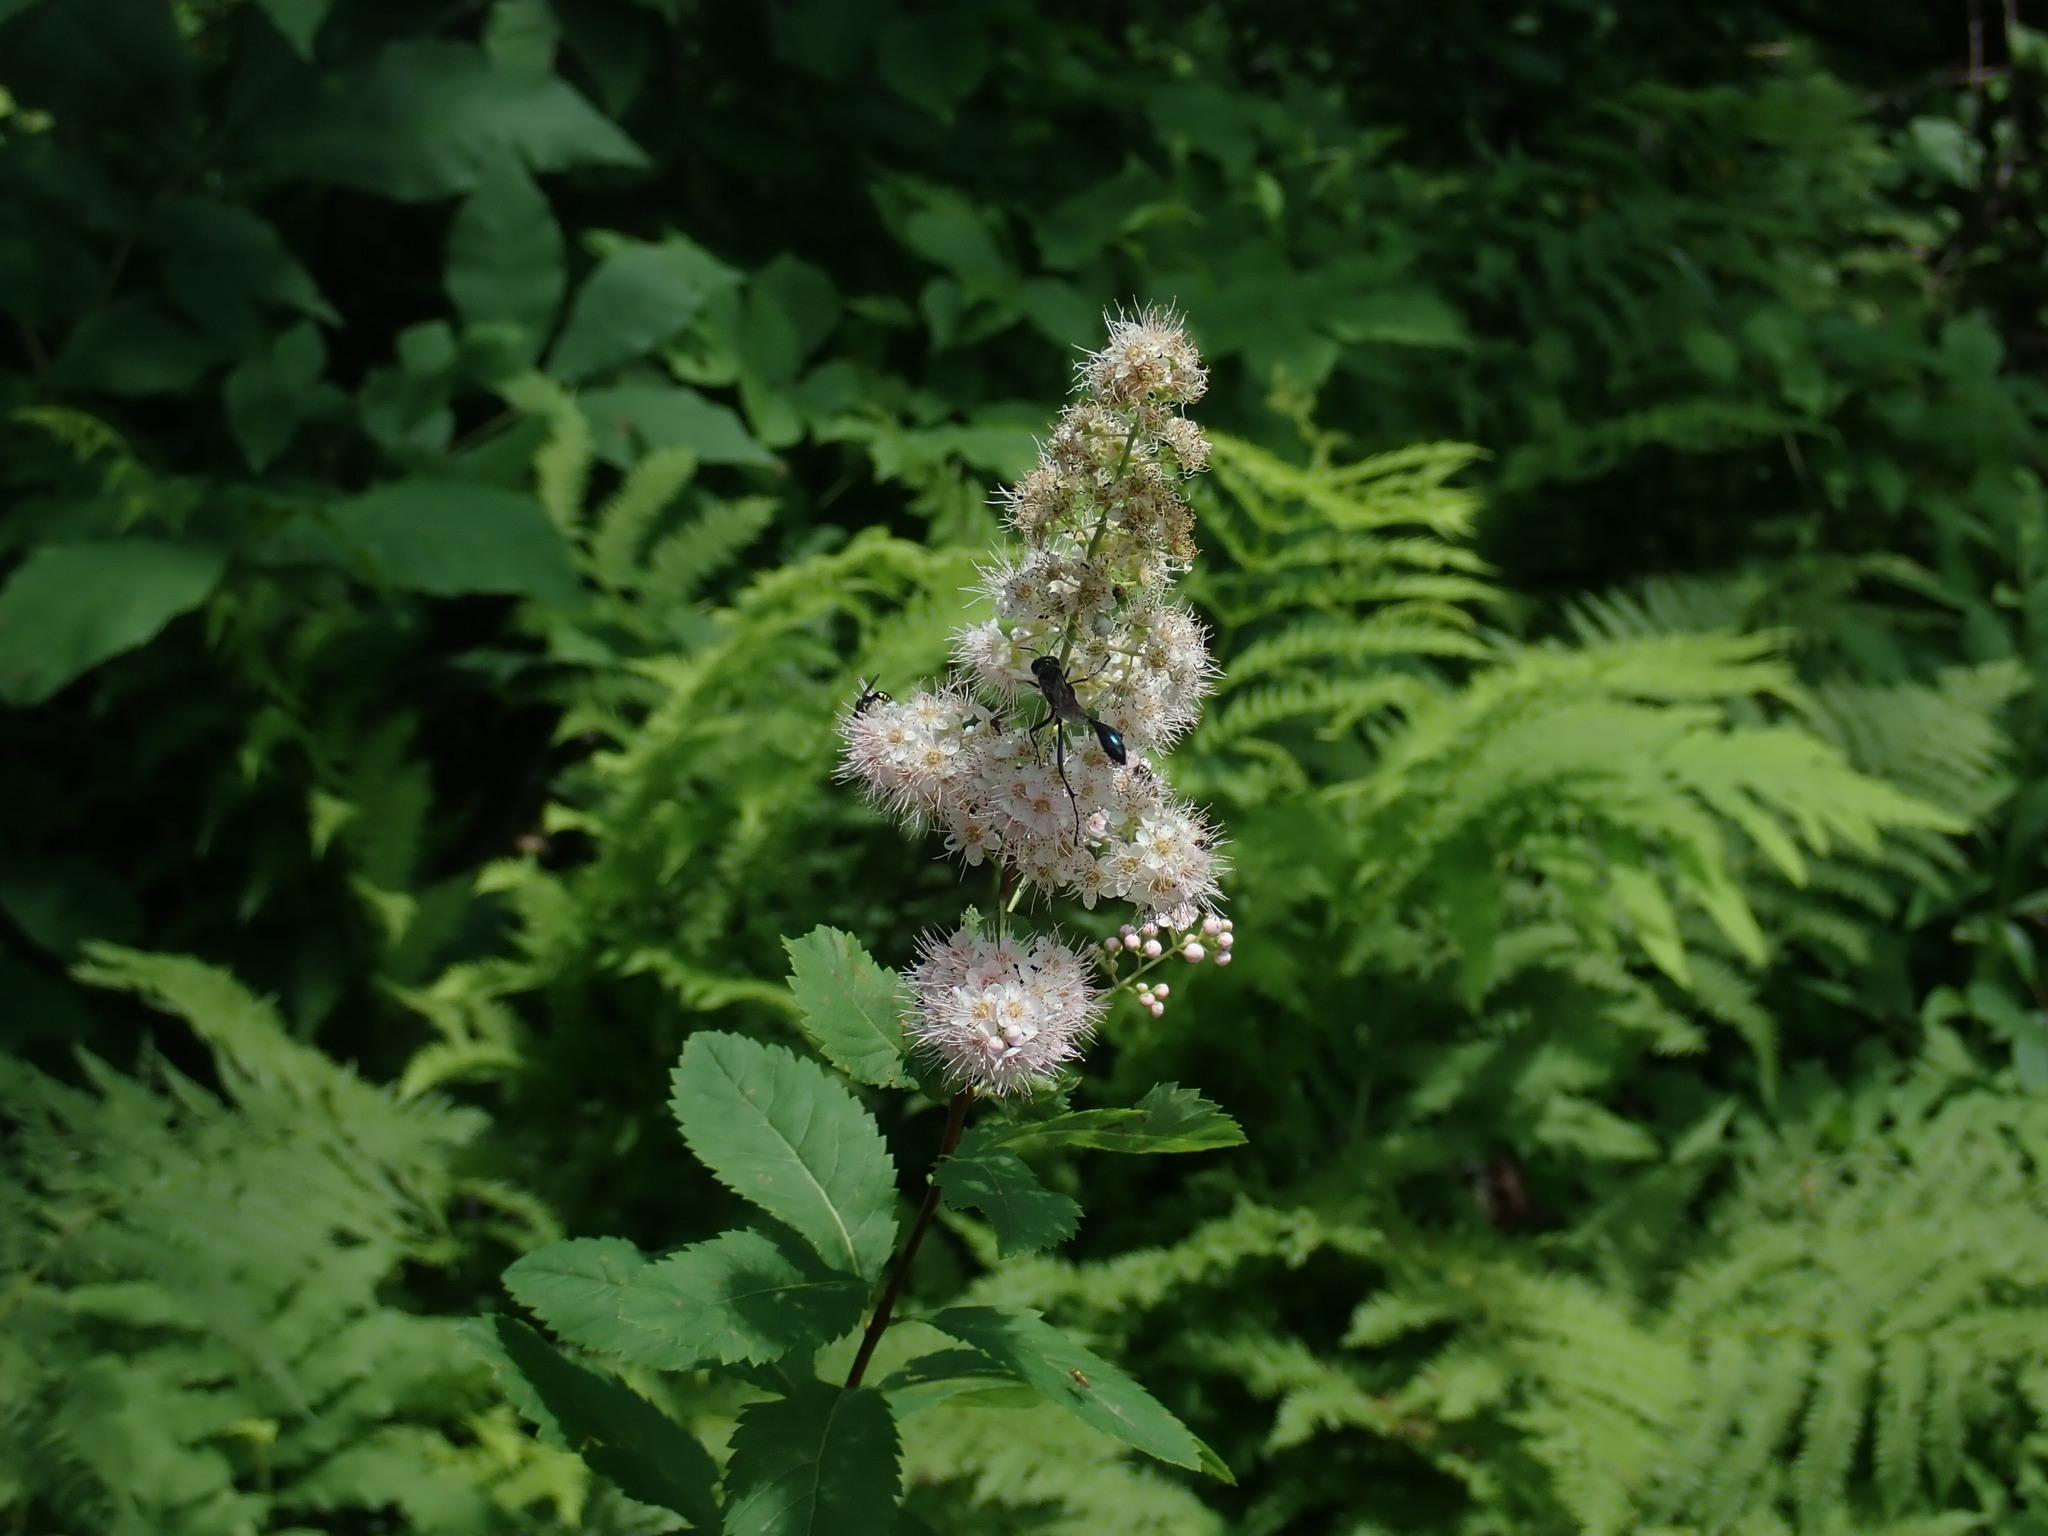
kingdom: Plantae
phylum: Tracheophyta
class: Magnoliopsida
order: Rosales
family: Rosaceae
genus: Spiraea
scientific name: Spiraea alba
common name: Pale bridewort
